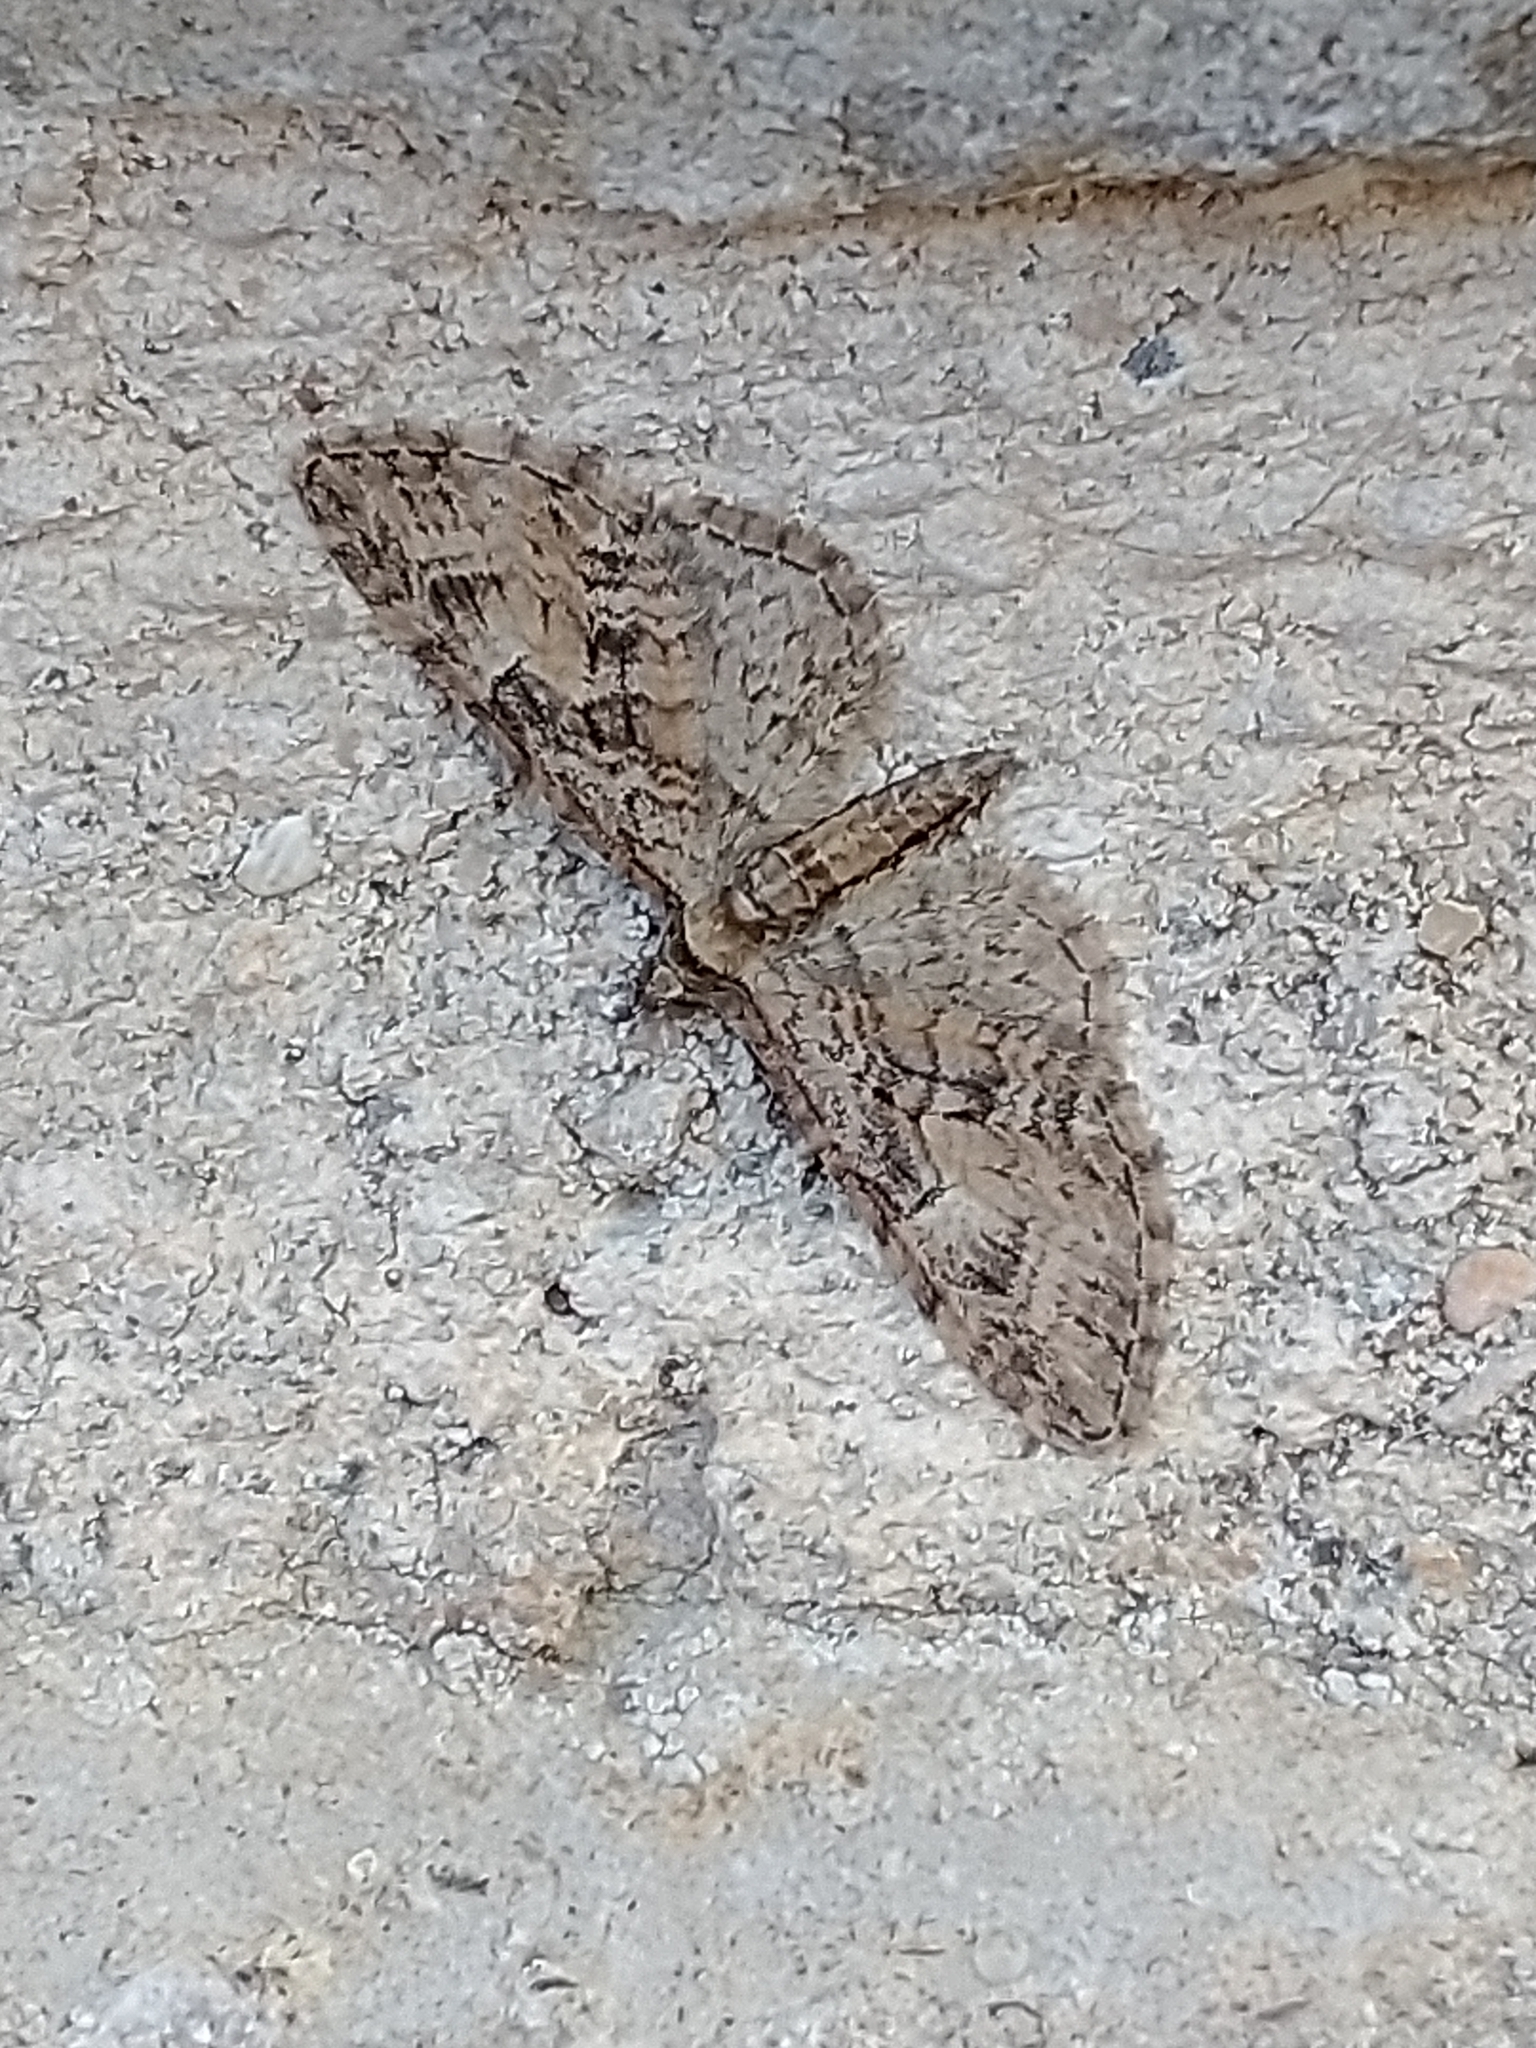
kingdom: Animalia
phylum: Arthropoda
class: Insecta
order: Lepidoptera
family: Geometridae
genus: Eupithecia
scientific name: Eupithecia abbreviata
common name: Brindled pug
